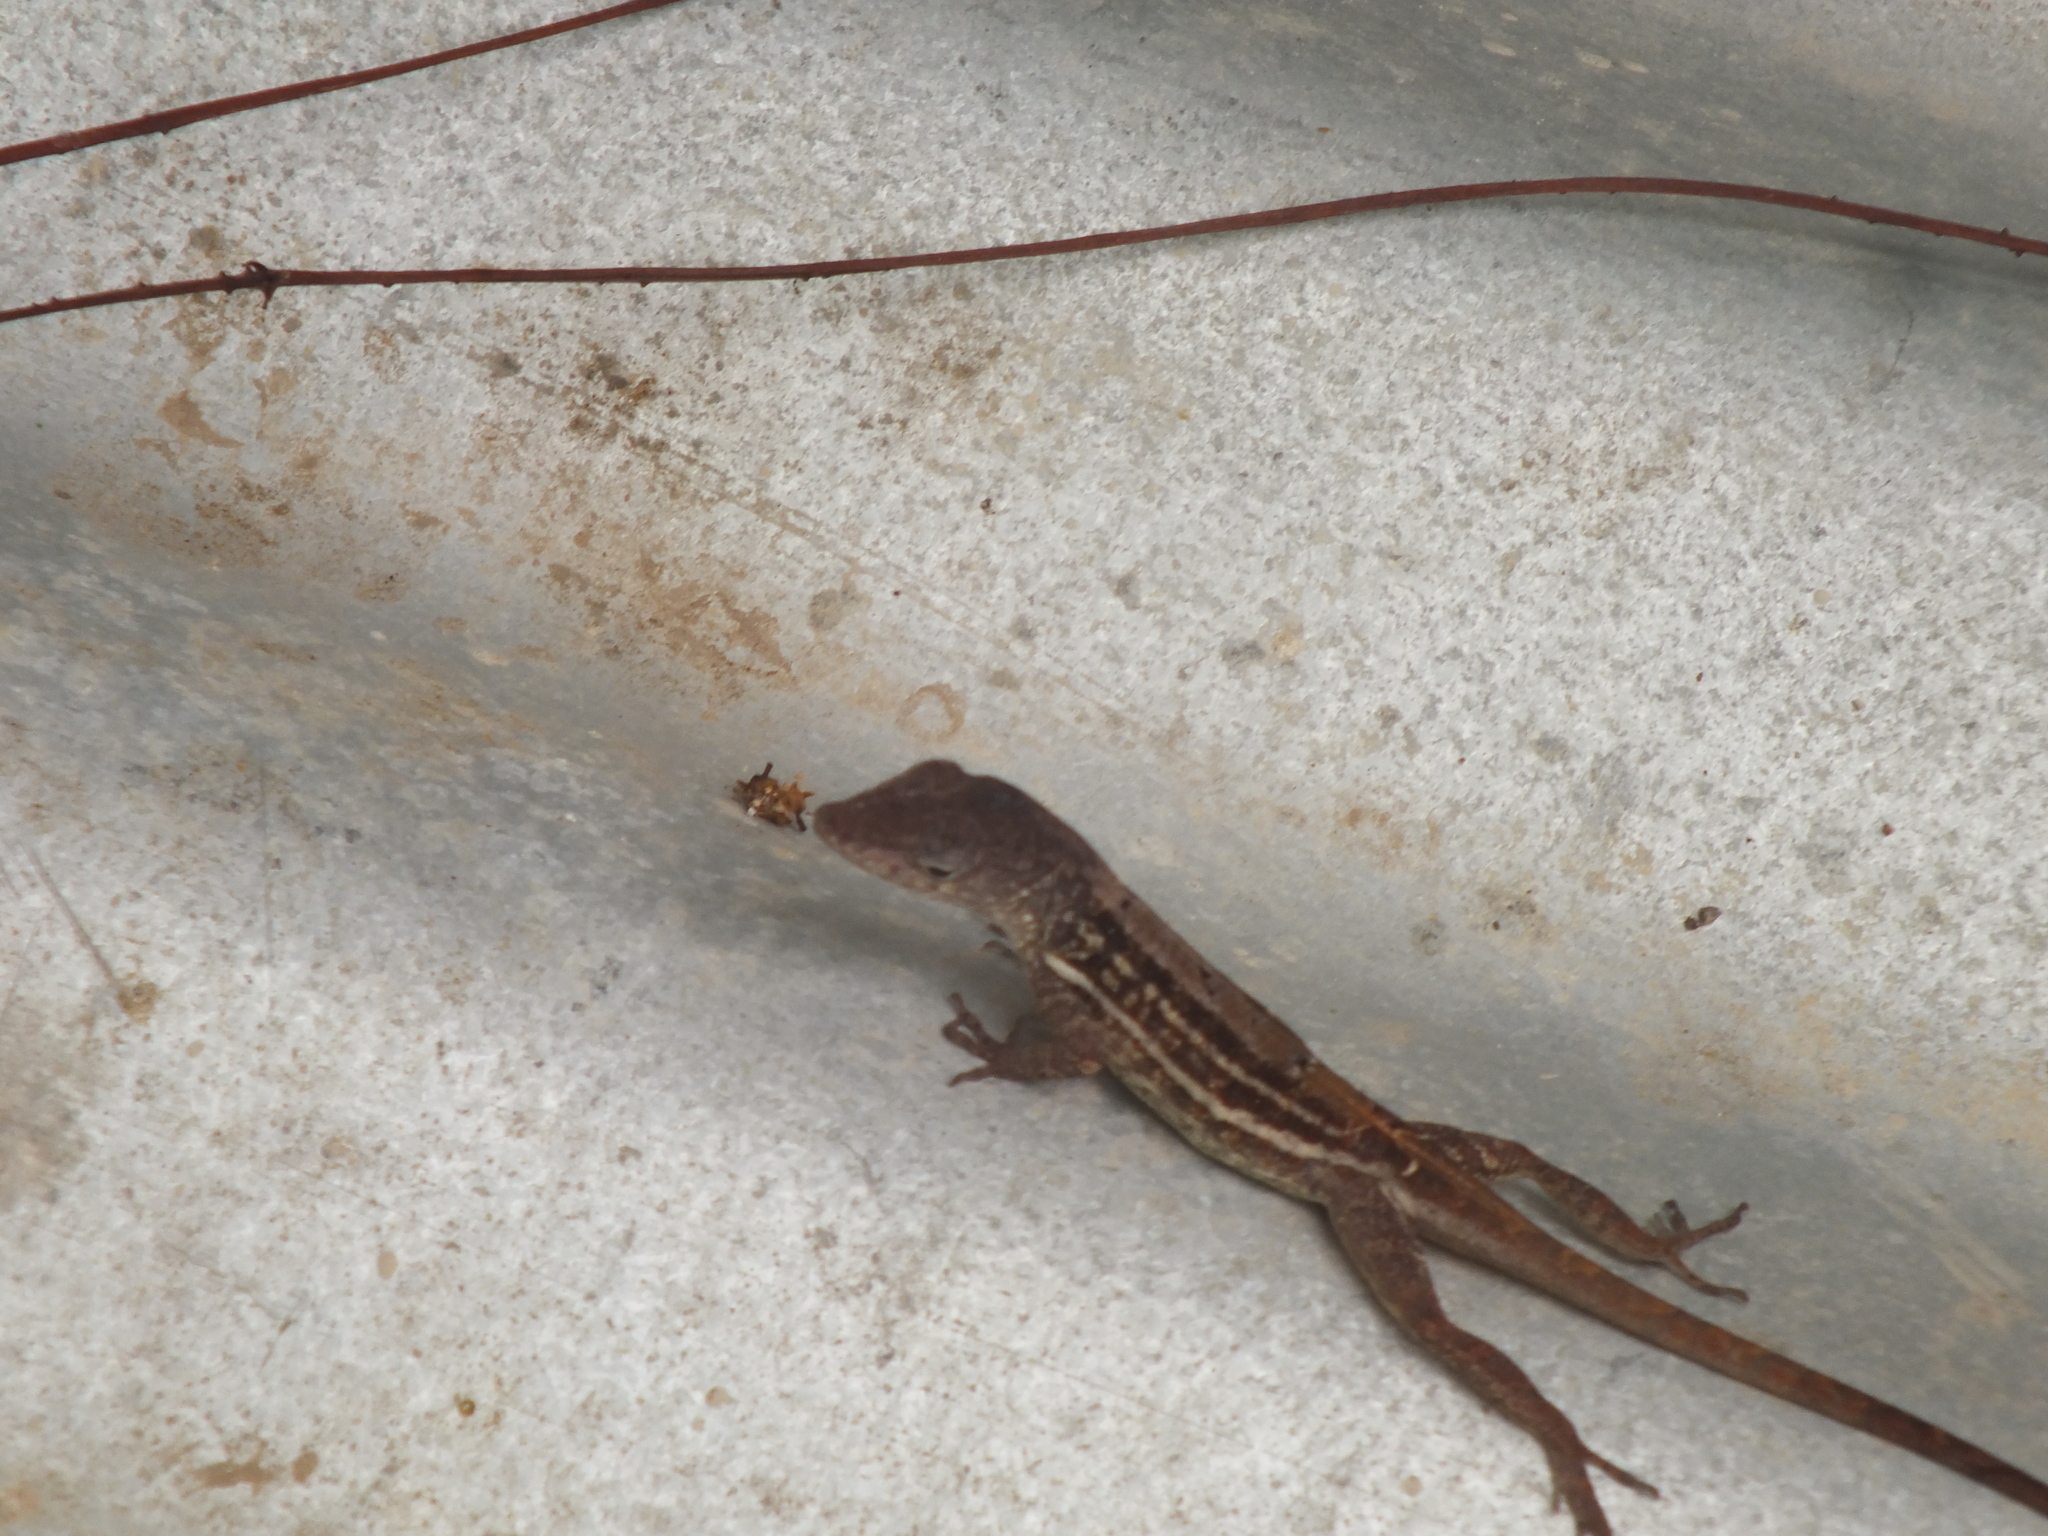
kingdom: Animalia
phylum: Chordata
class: Squamata
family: Dactyloidae
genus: Anolis
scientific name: Anolis lineatopus
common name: Stripefoot anole
